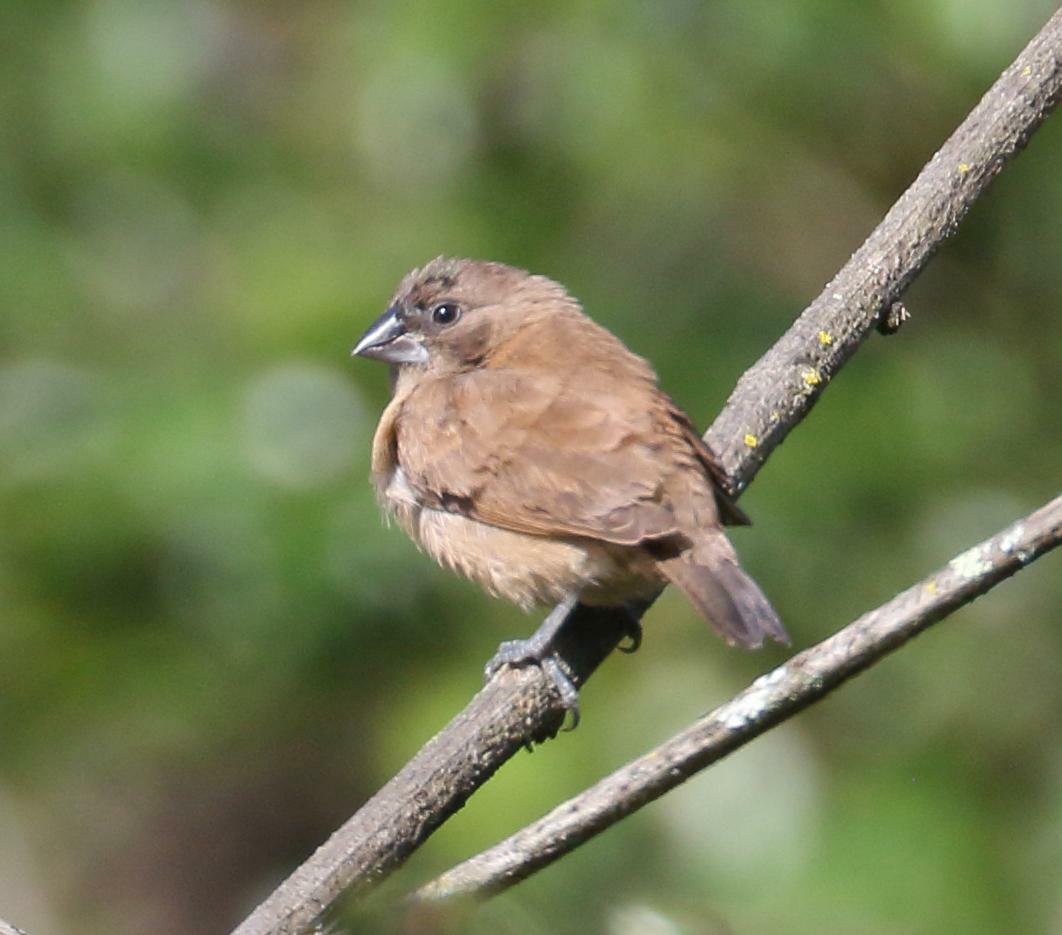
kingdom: Animalia
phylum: Chordata
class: Aves
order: Passeriformes
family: Estrildidae
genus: Lonchura
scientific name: Lonchura cucullata
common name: Bronze mannikin
